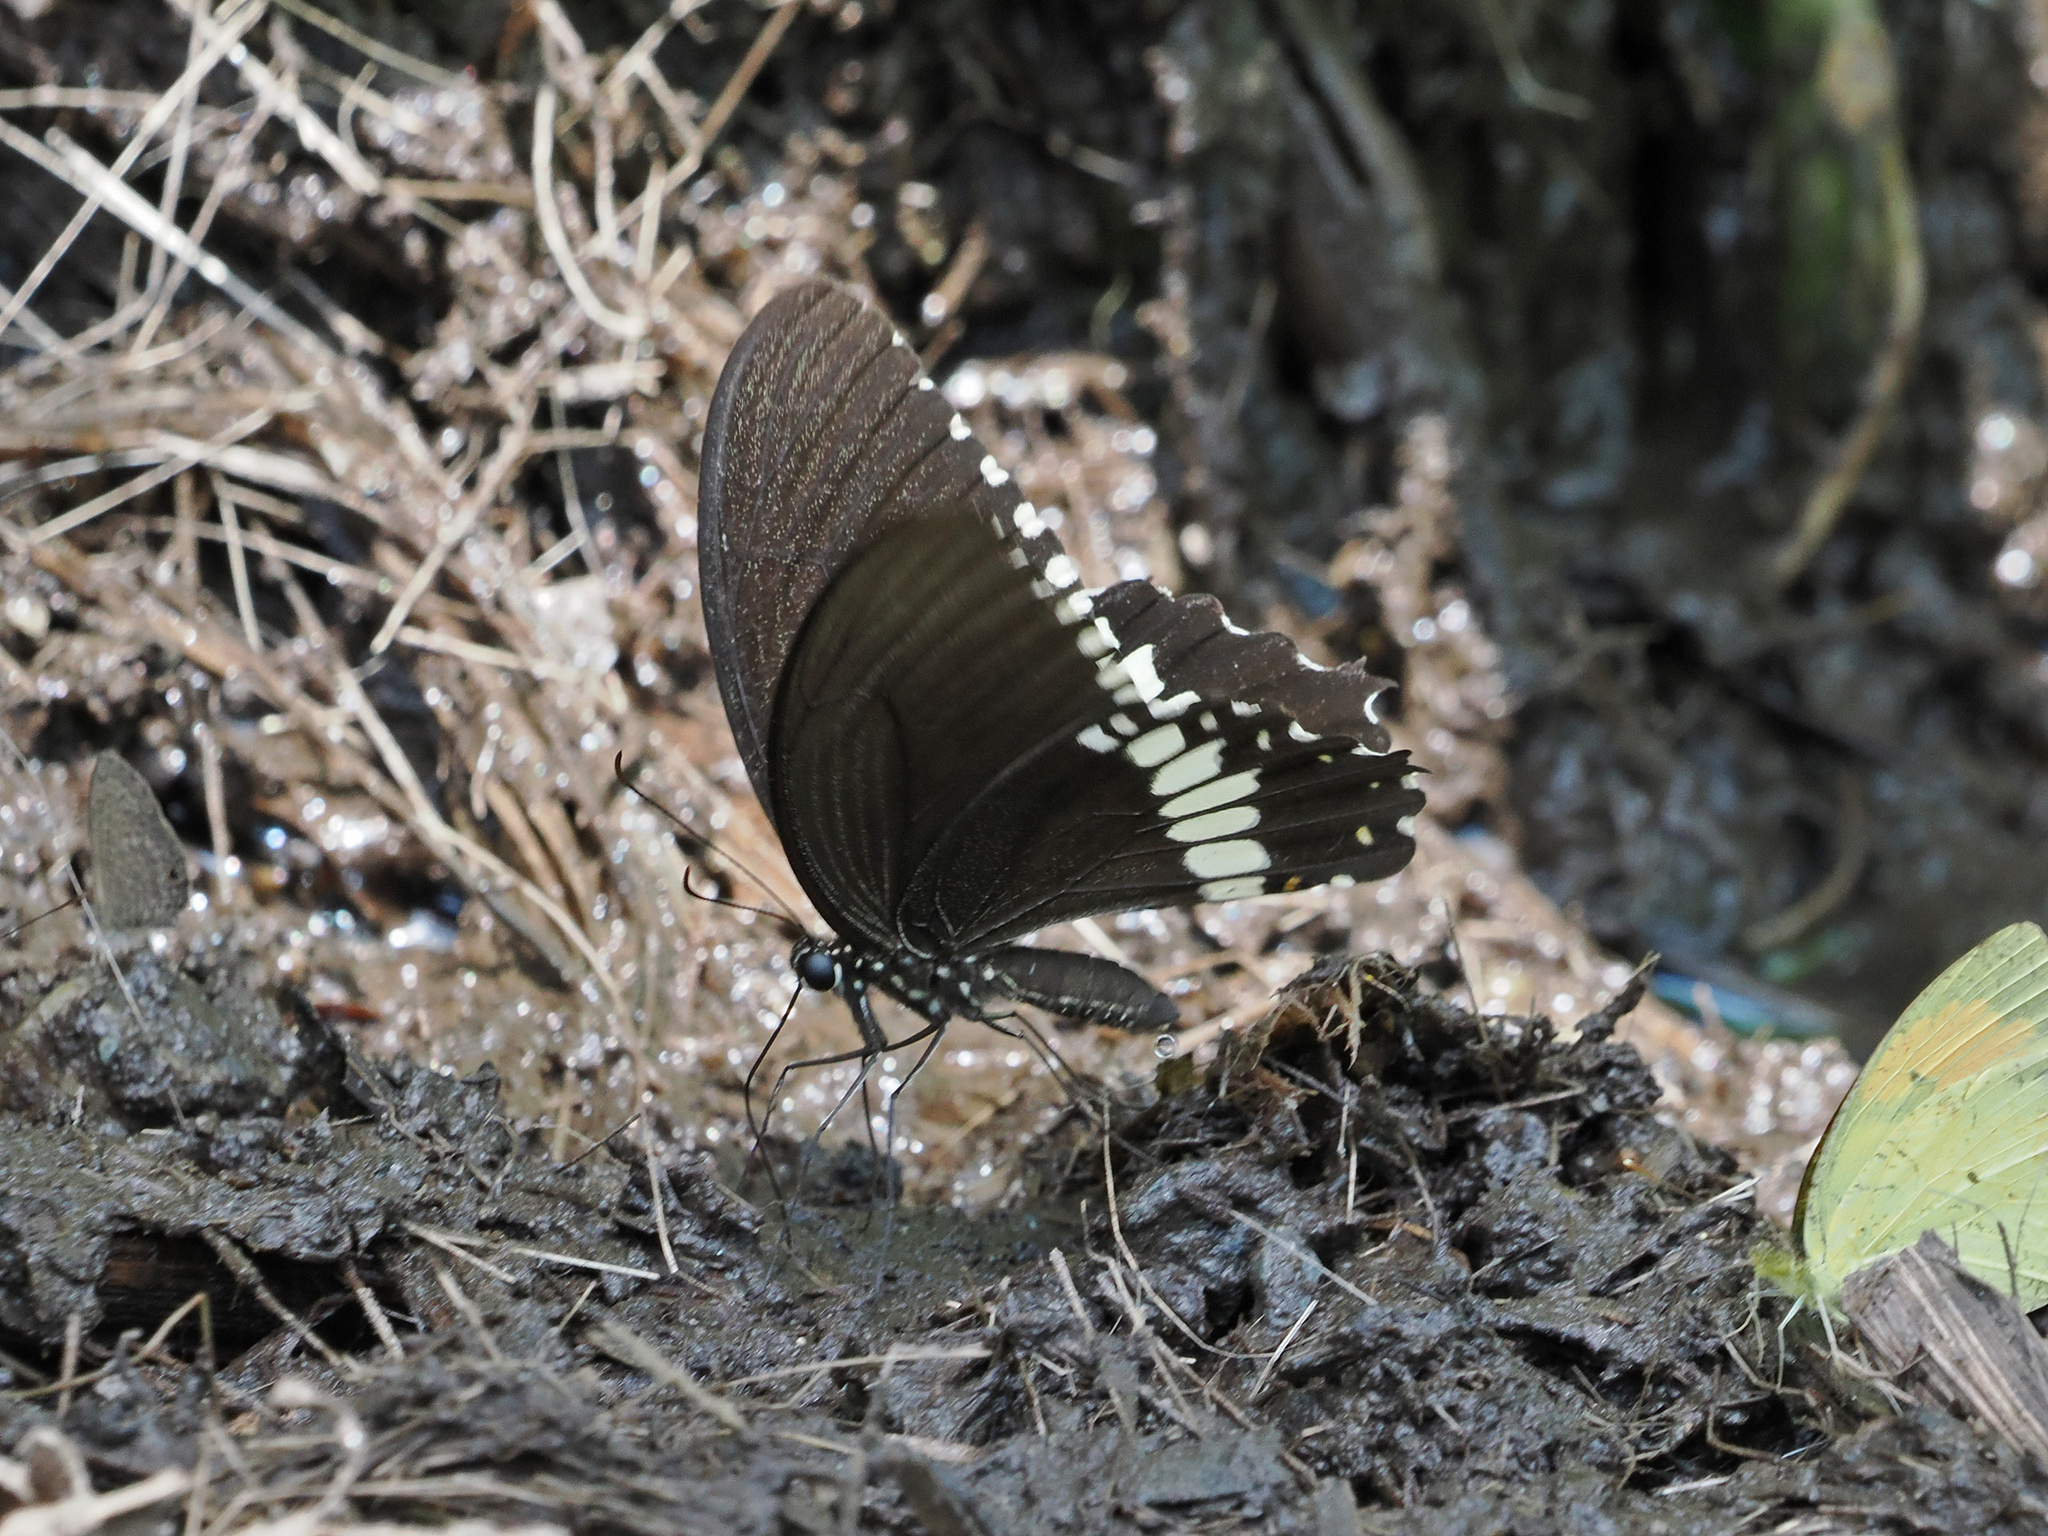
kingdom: Animalia
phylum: Arthropoda
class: Insecta
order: Lepidoptera
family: Papilionidae
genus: Papilio
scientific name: Papilio polytes
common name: Common mormon
